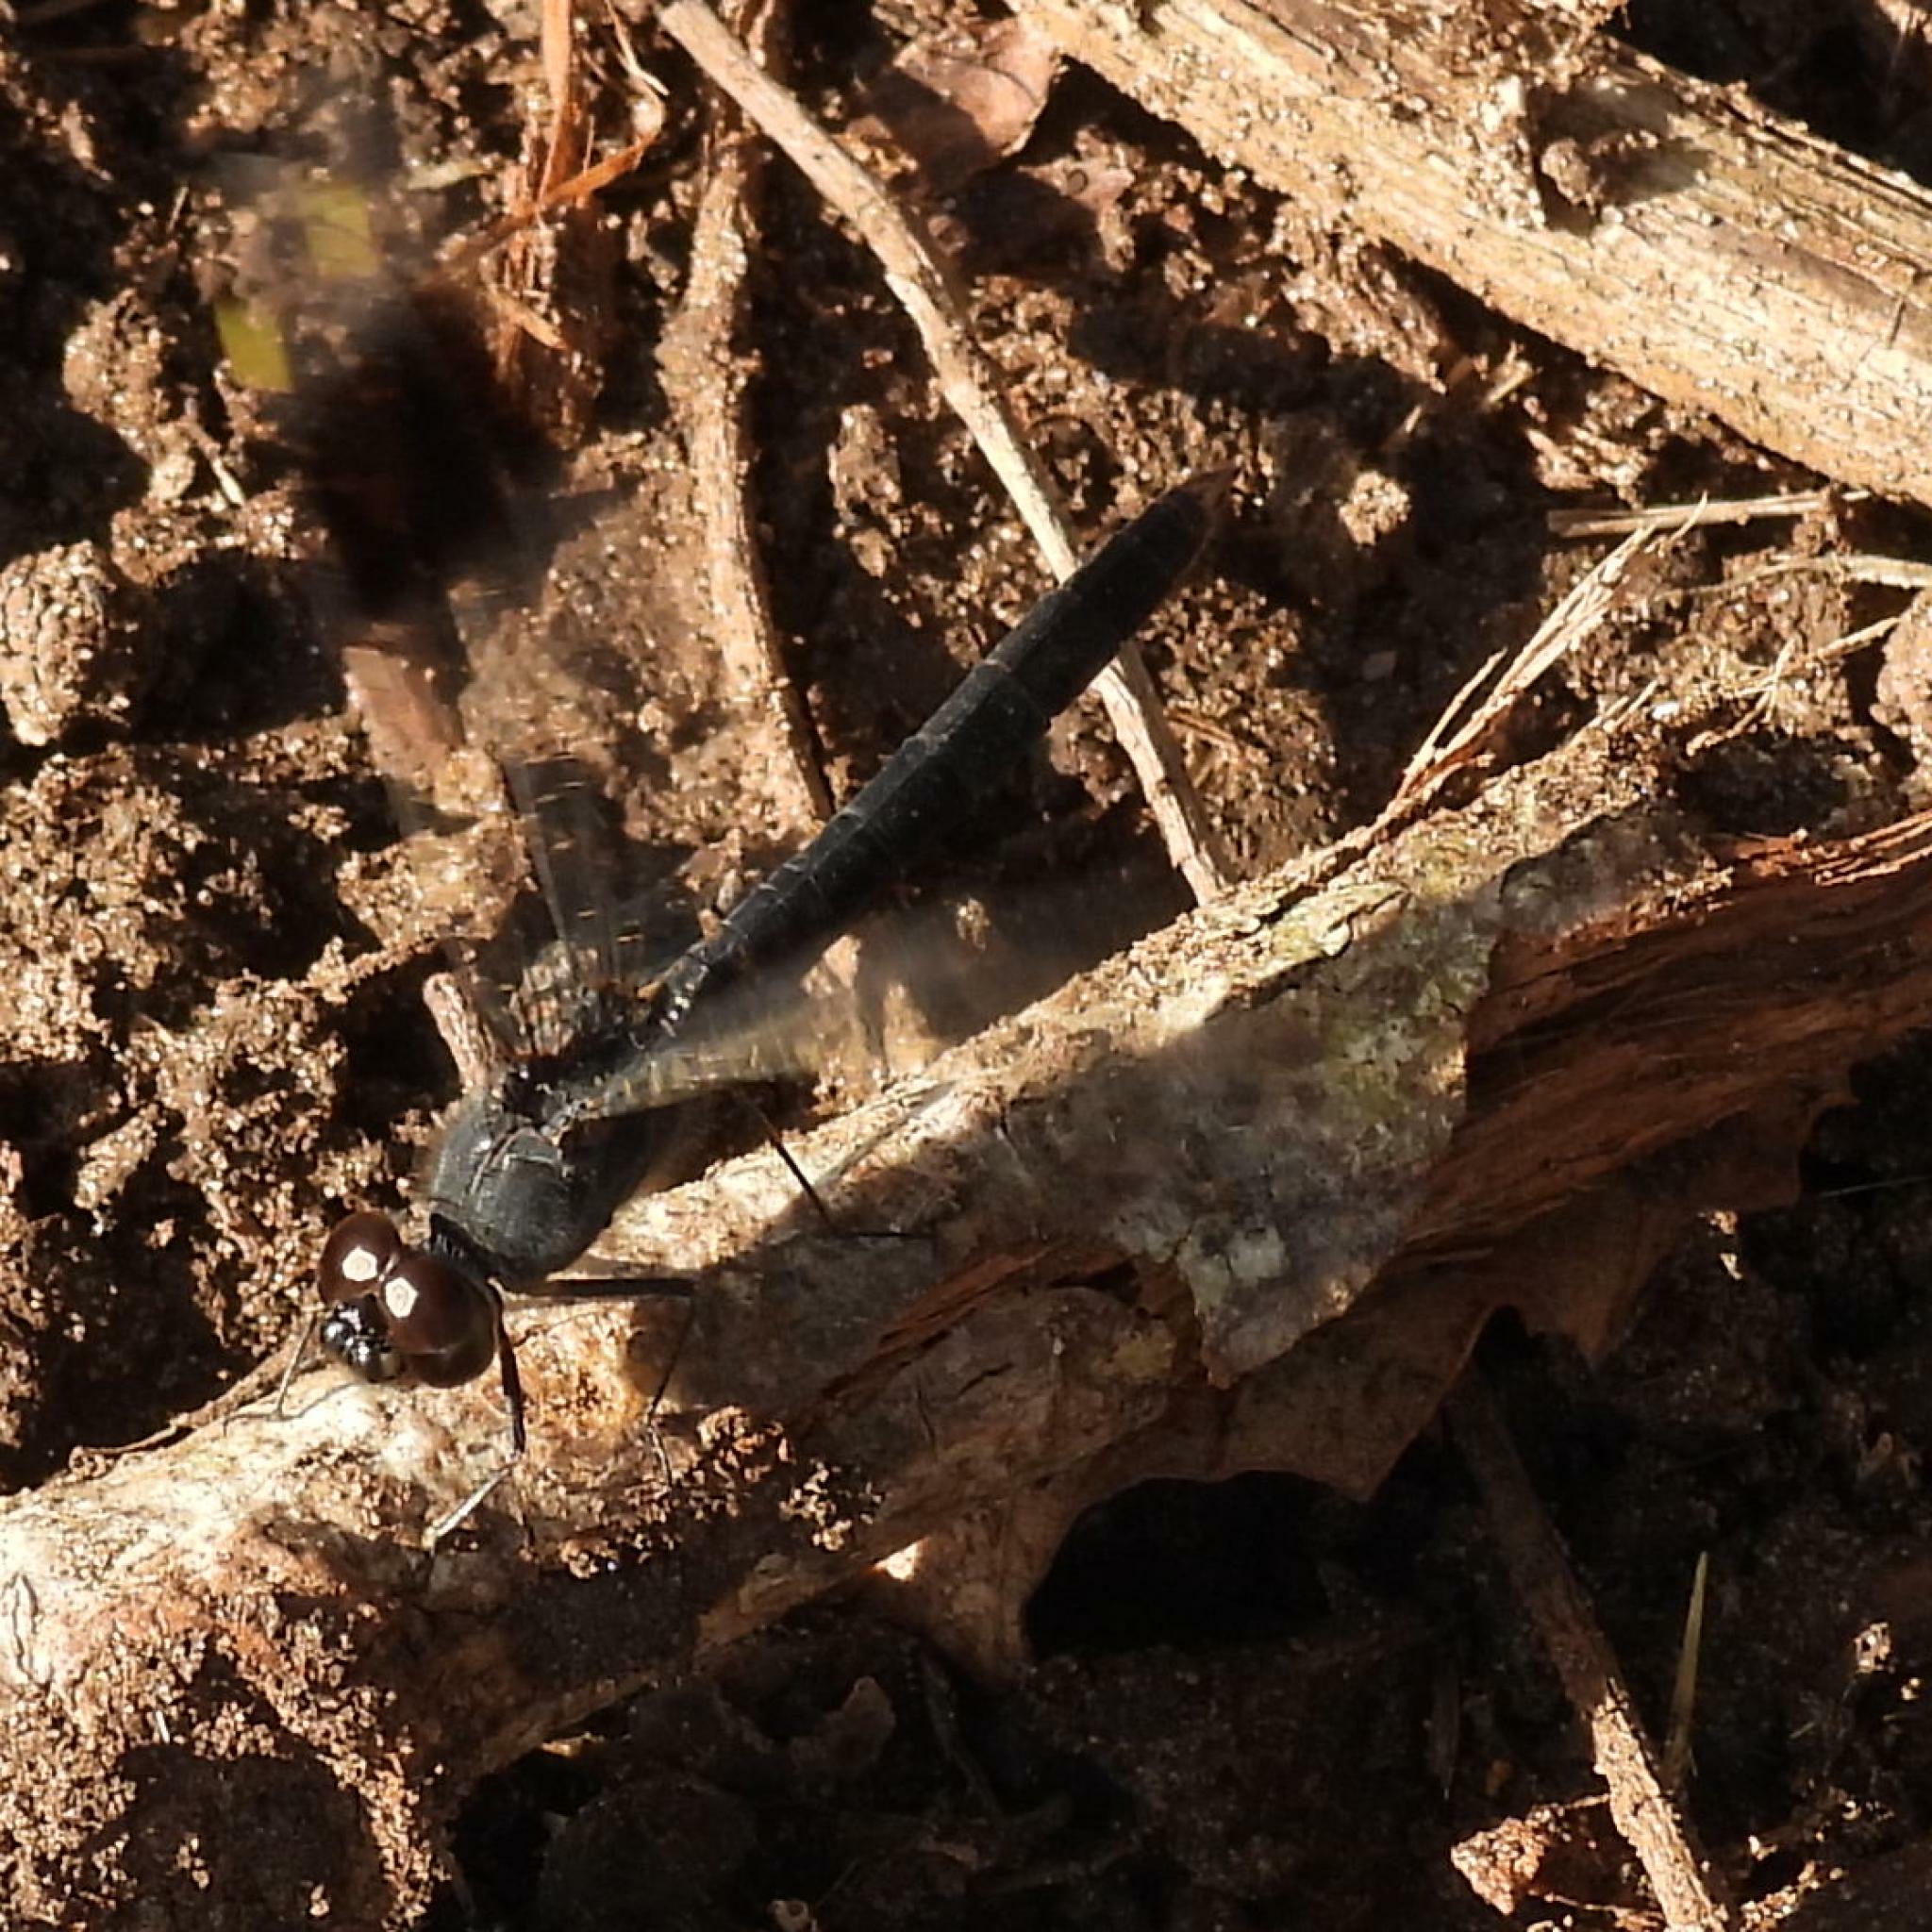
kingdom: Animalia
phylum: Arthropoda
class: Insecta
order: Odonata
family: Libellulidae
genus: Brachythemis
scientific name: Brachythemis leucosticta
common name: Banded groundling
